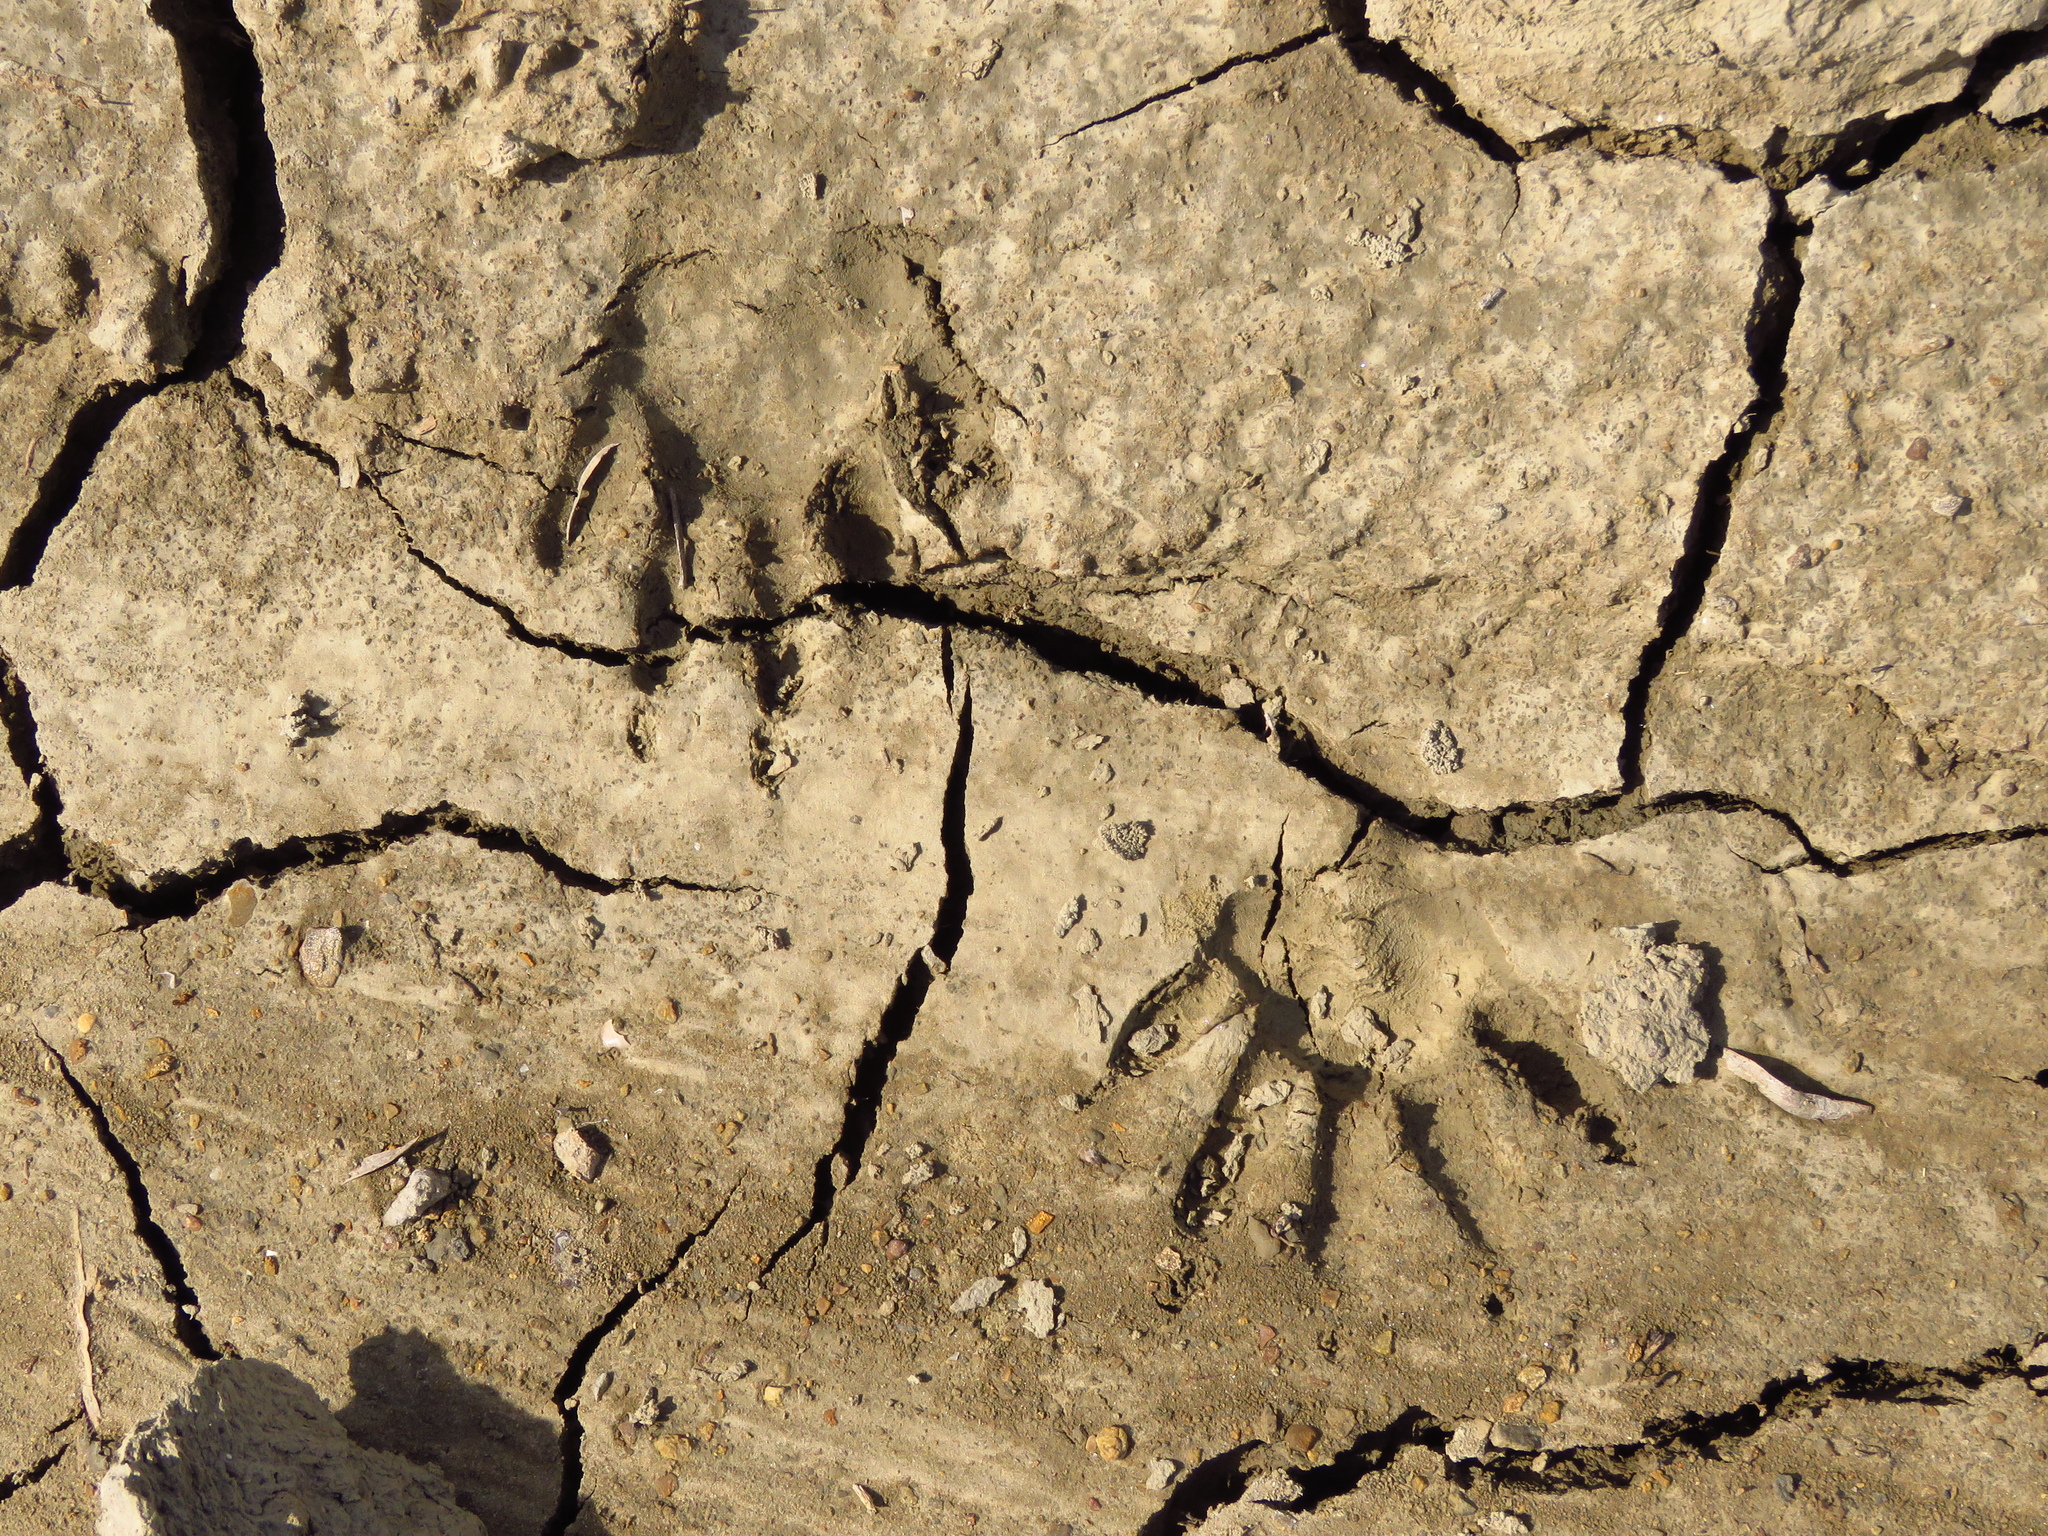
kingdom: Animalia
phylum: Chordata
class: Mammalia
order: Carnivora
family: Procyonidae
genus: Procyon
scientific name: Procyon lotor
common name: Raccoon
